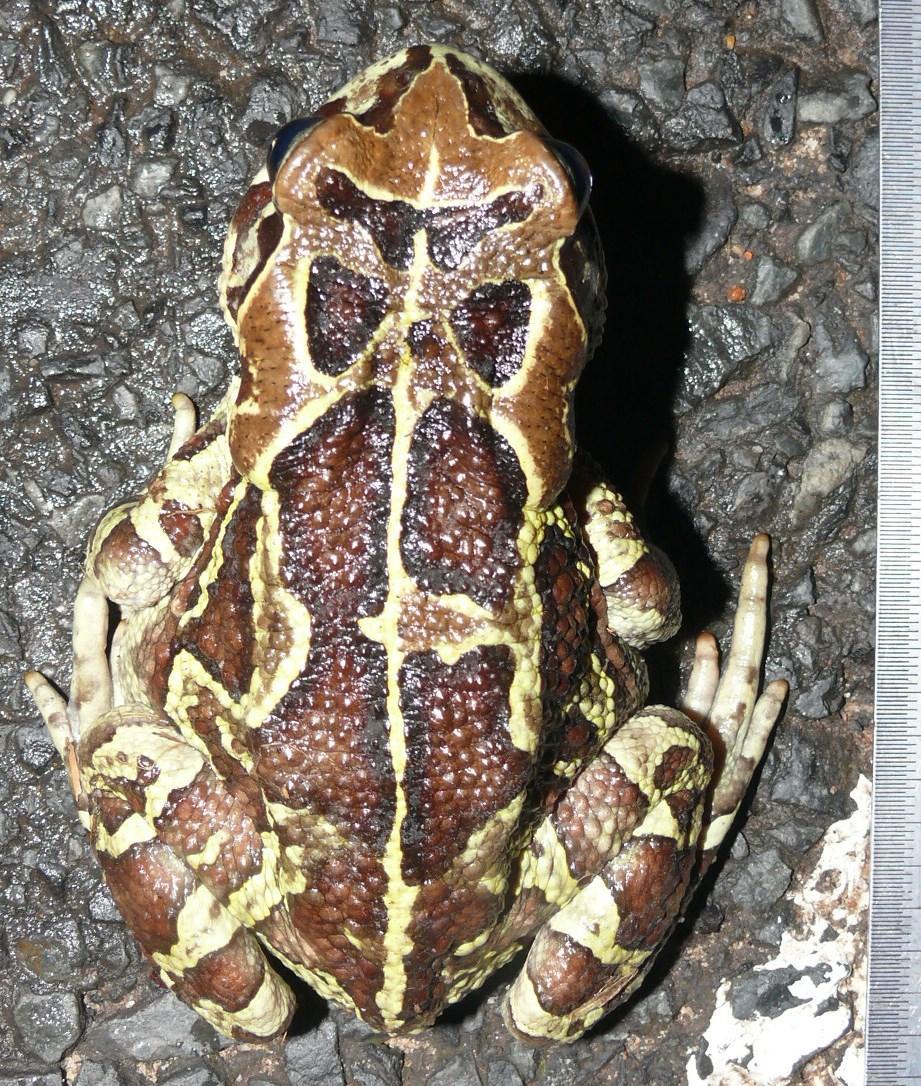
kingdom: Animalia
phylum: Chordata
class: Amphibia
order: Anura
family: Bufonidae
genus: Sclerophrys
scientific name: Sclerophrys pantherina
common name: Panther toad
